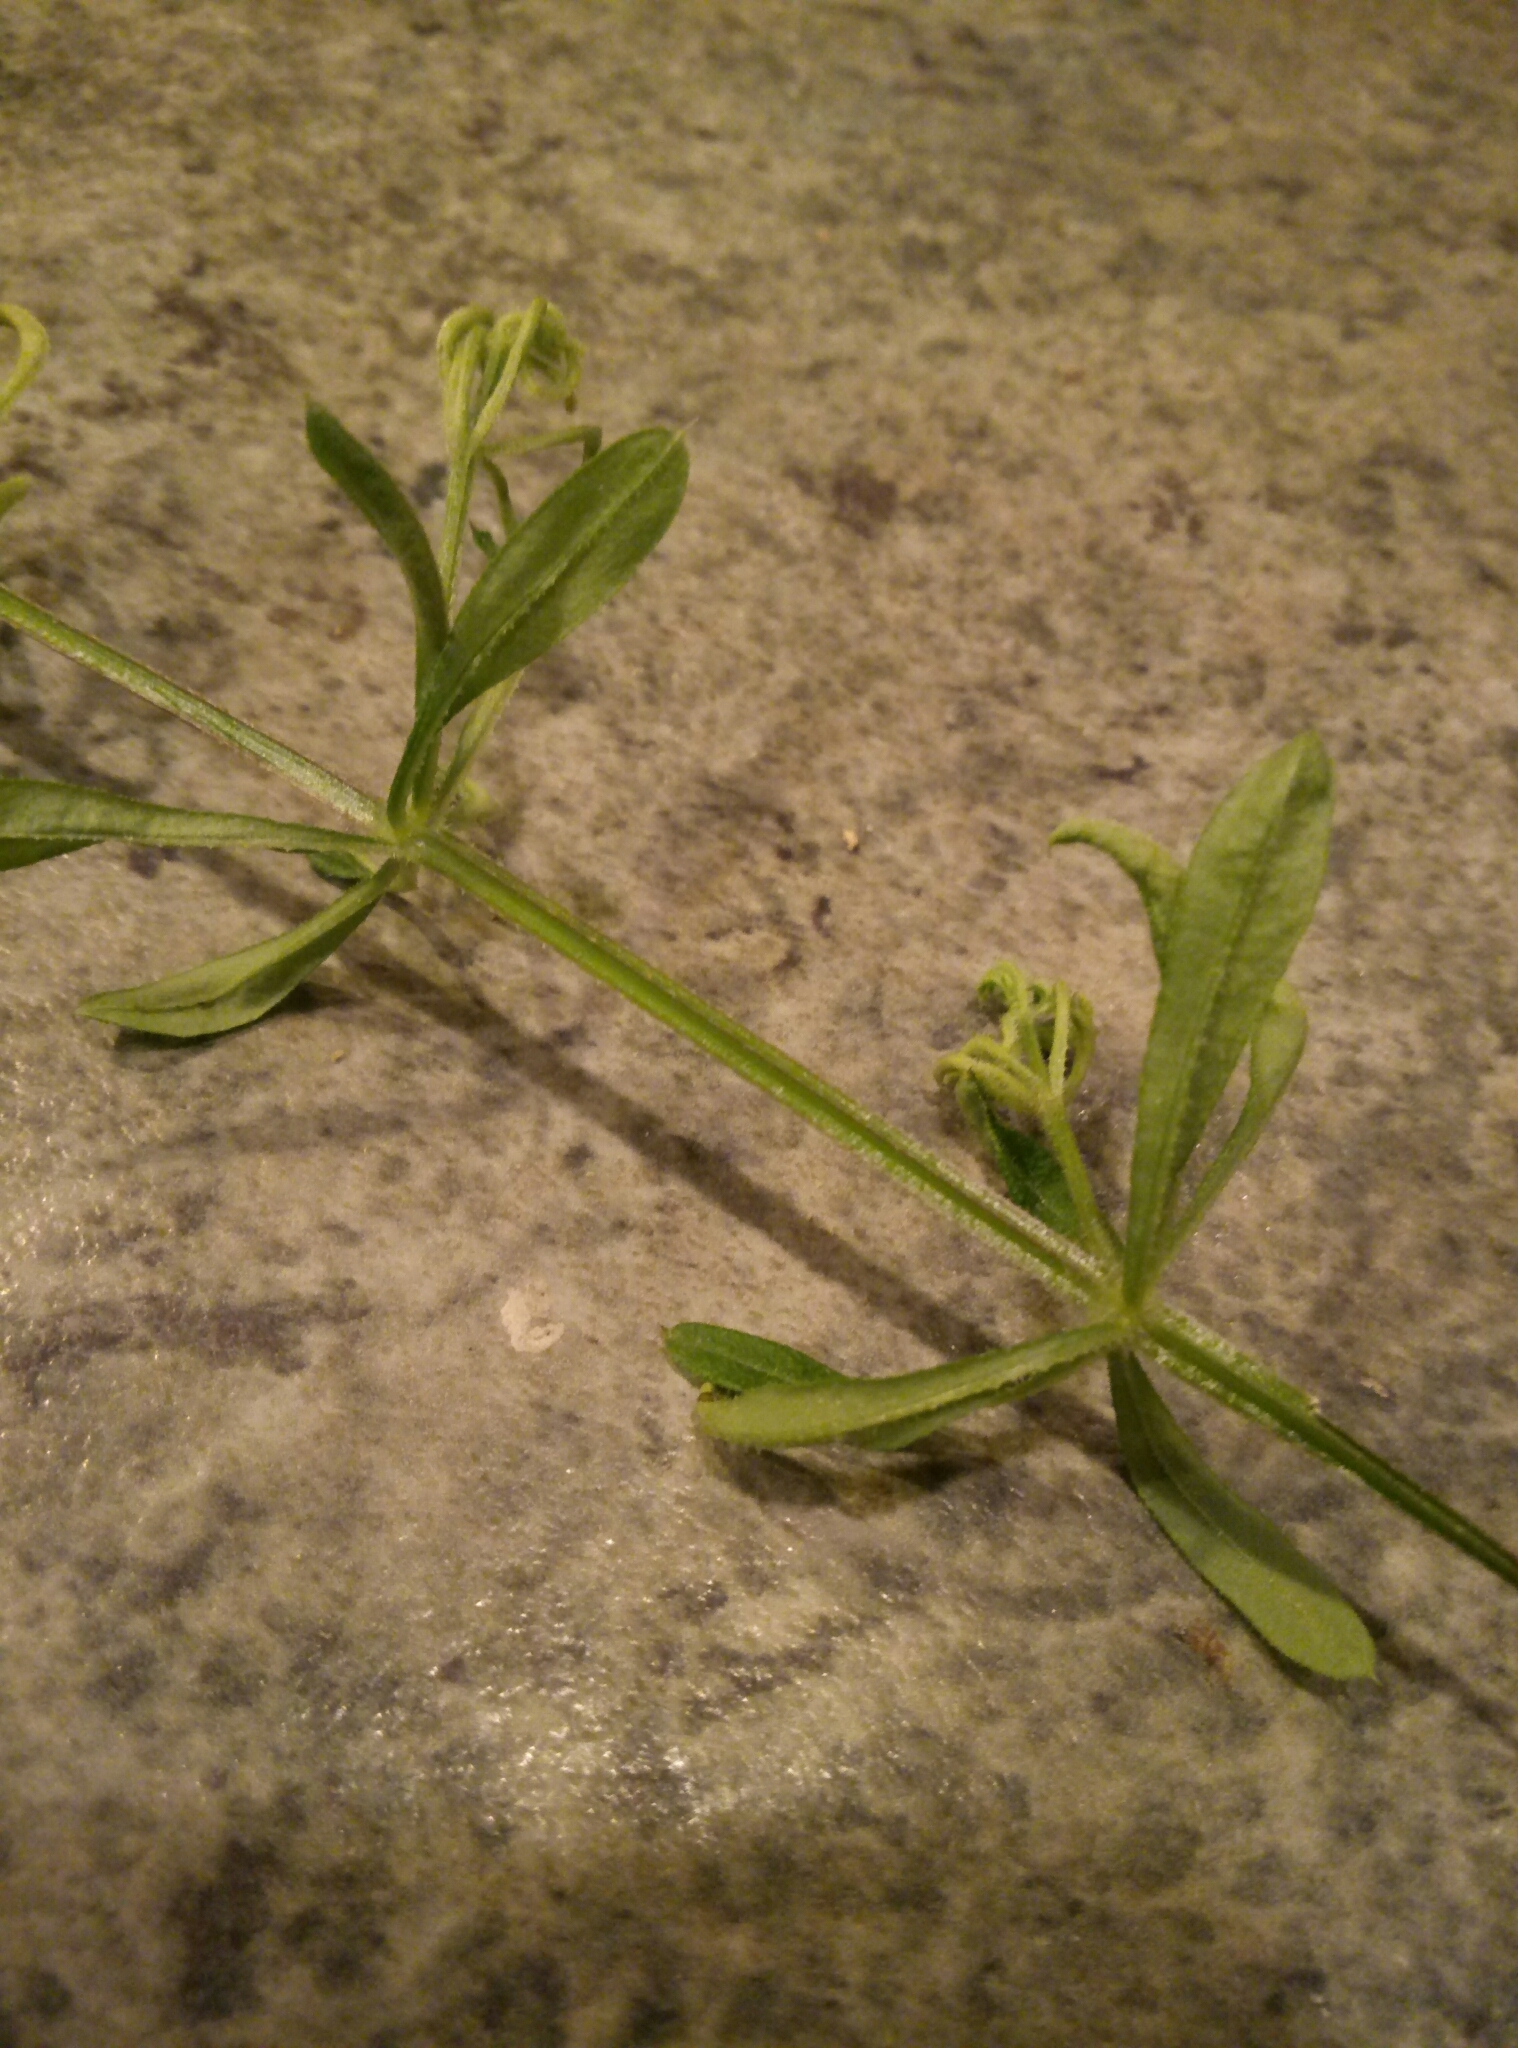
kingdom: Plantae
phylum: Tracheophyta
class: Magnoliopsida
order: Gentianales
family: Rubiaceae
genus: Galium
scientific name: Galium aparine
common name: Cleavers
